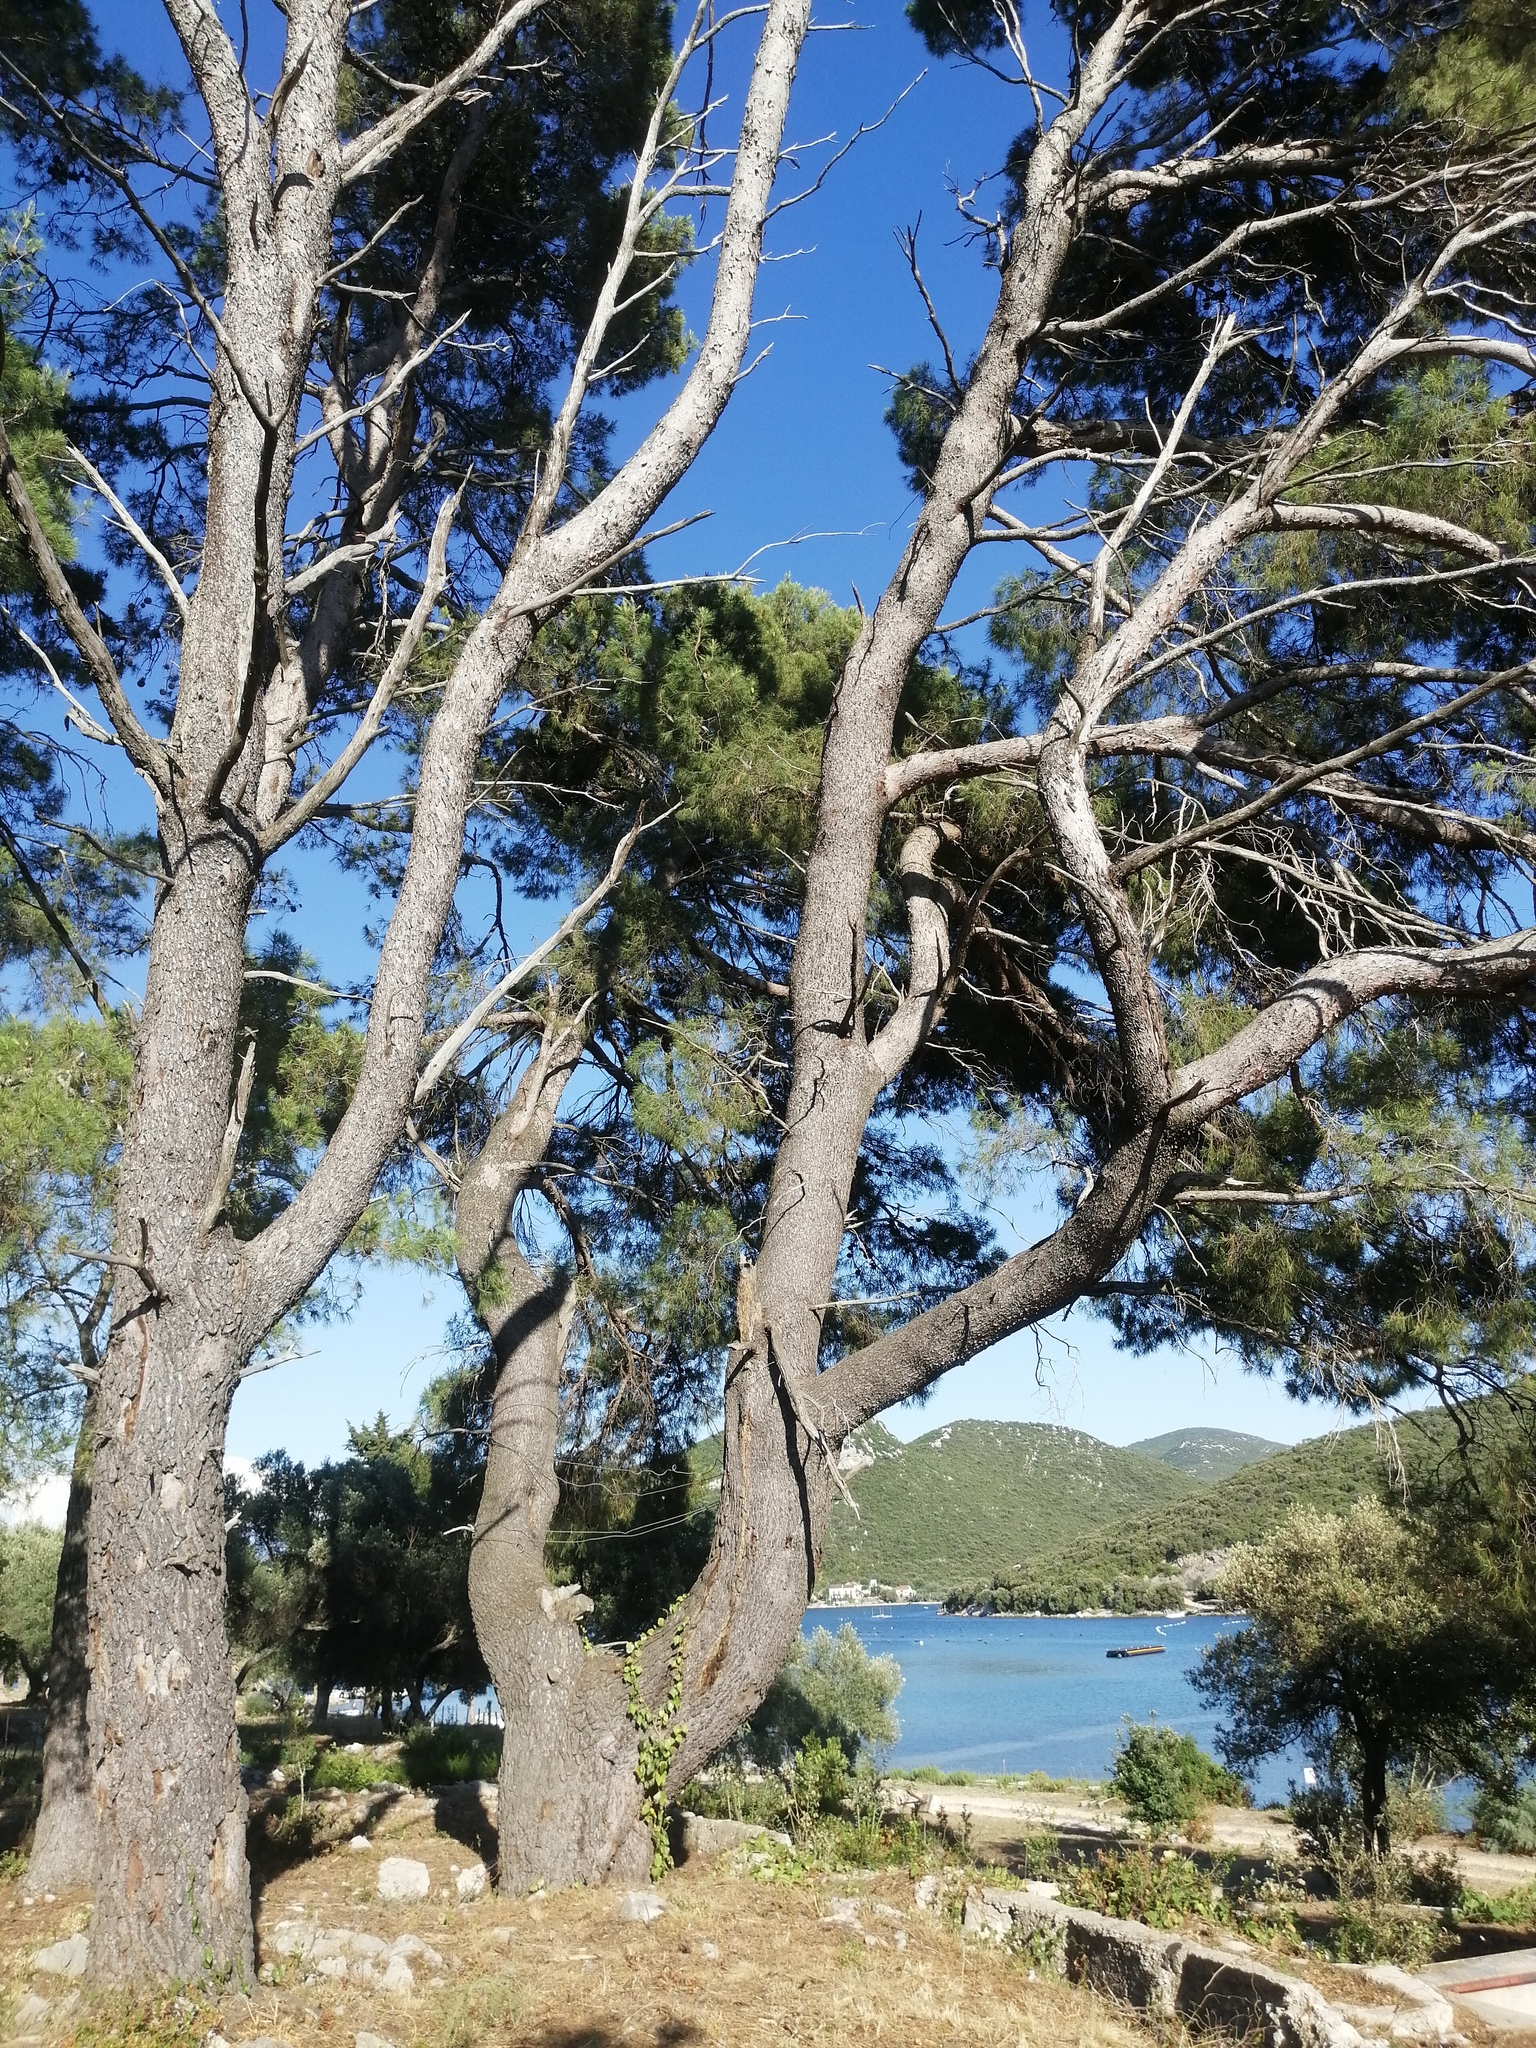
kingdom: Plantae
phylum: Tracheophyta
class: Pinopsida
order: Pinales
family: Pinaceae
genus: Pinus
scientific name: Pinus halepensis
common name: Aleppo pine
